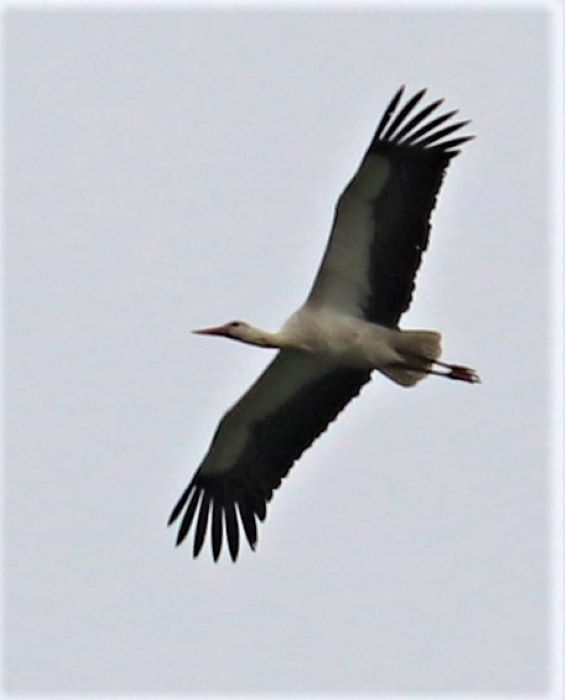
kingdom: Animalia
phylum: Chordata
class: Aves
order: Ciconiiformes
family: Ciconiidae
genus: Ciconia
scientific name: Ciconia ciconia
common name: White stork
